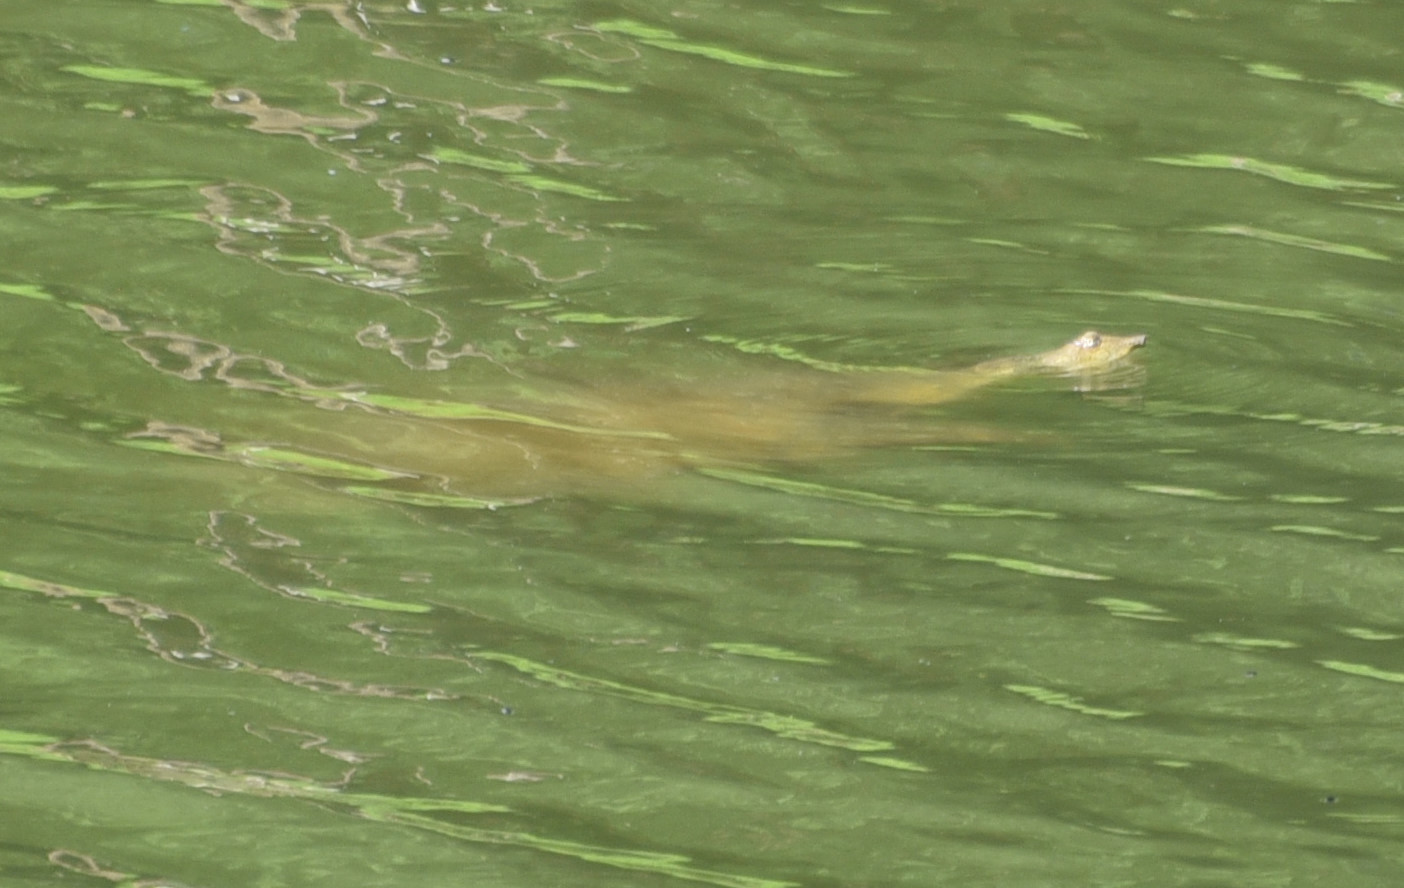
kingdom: Animalia
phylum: Chordata
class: Testudines
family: Trionychidae
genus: Apalone
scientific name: Apalone spinifera
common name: Spiny softshell turtle
